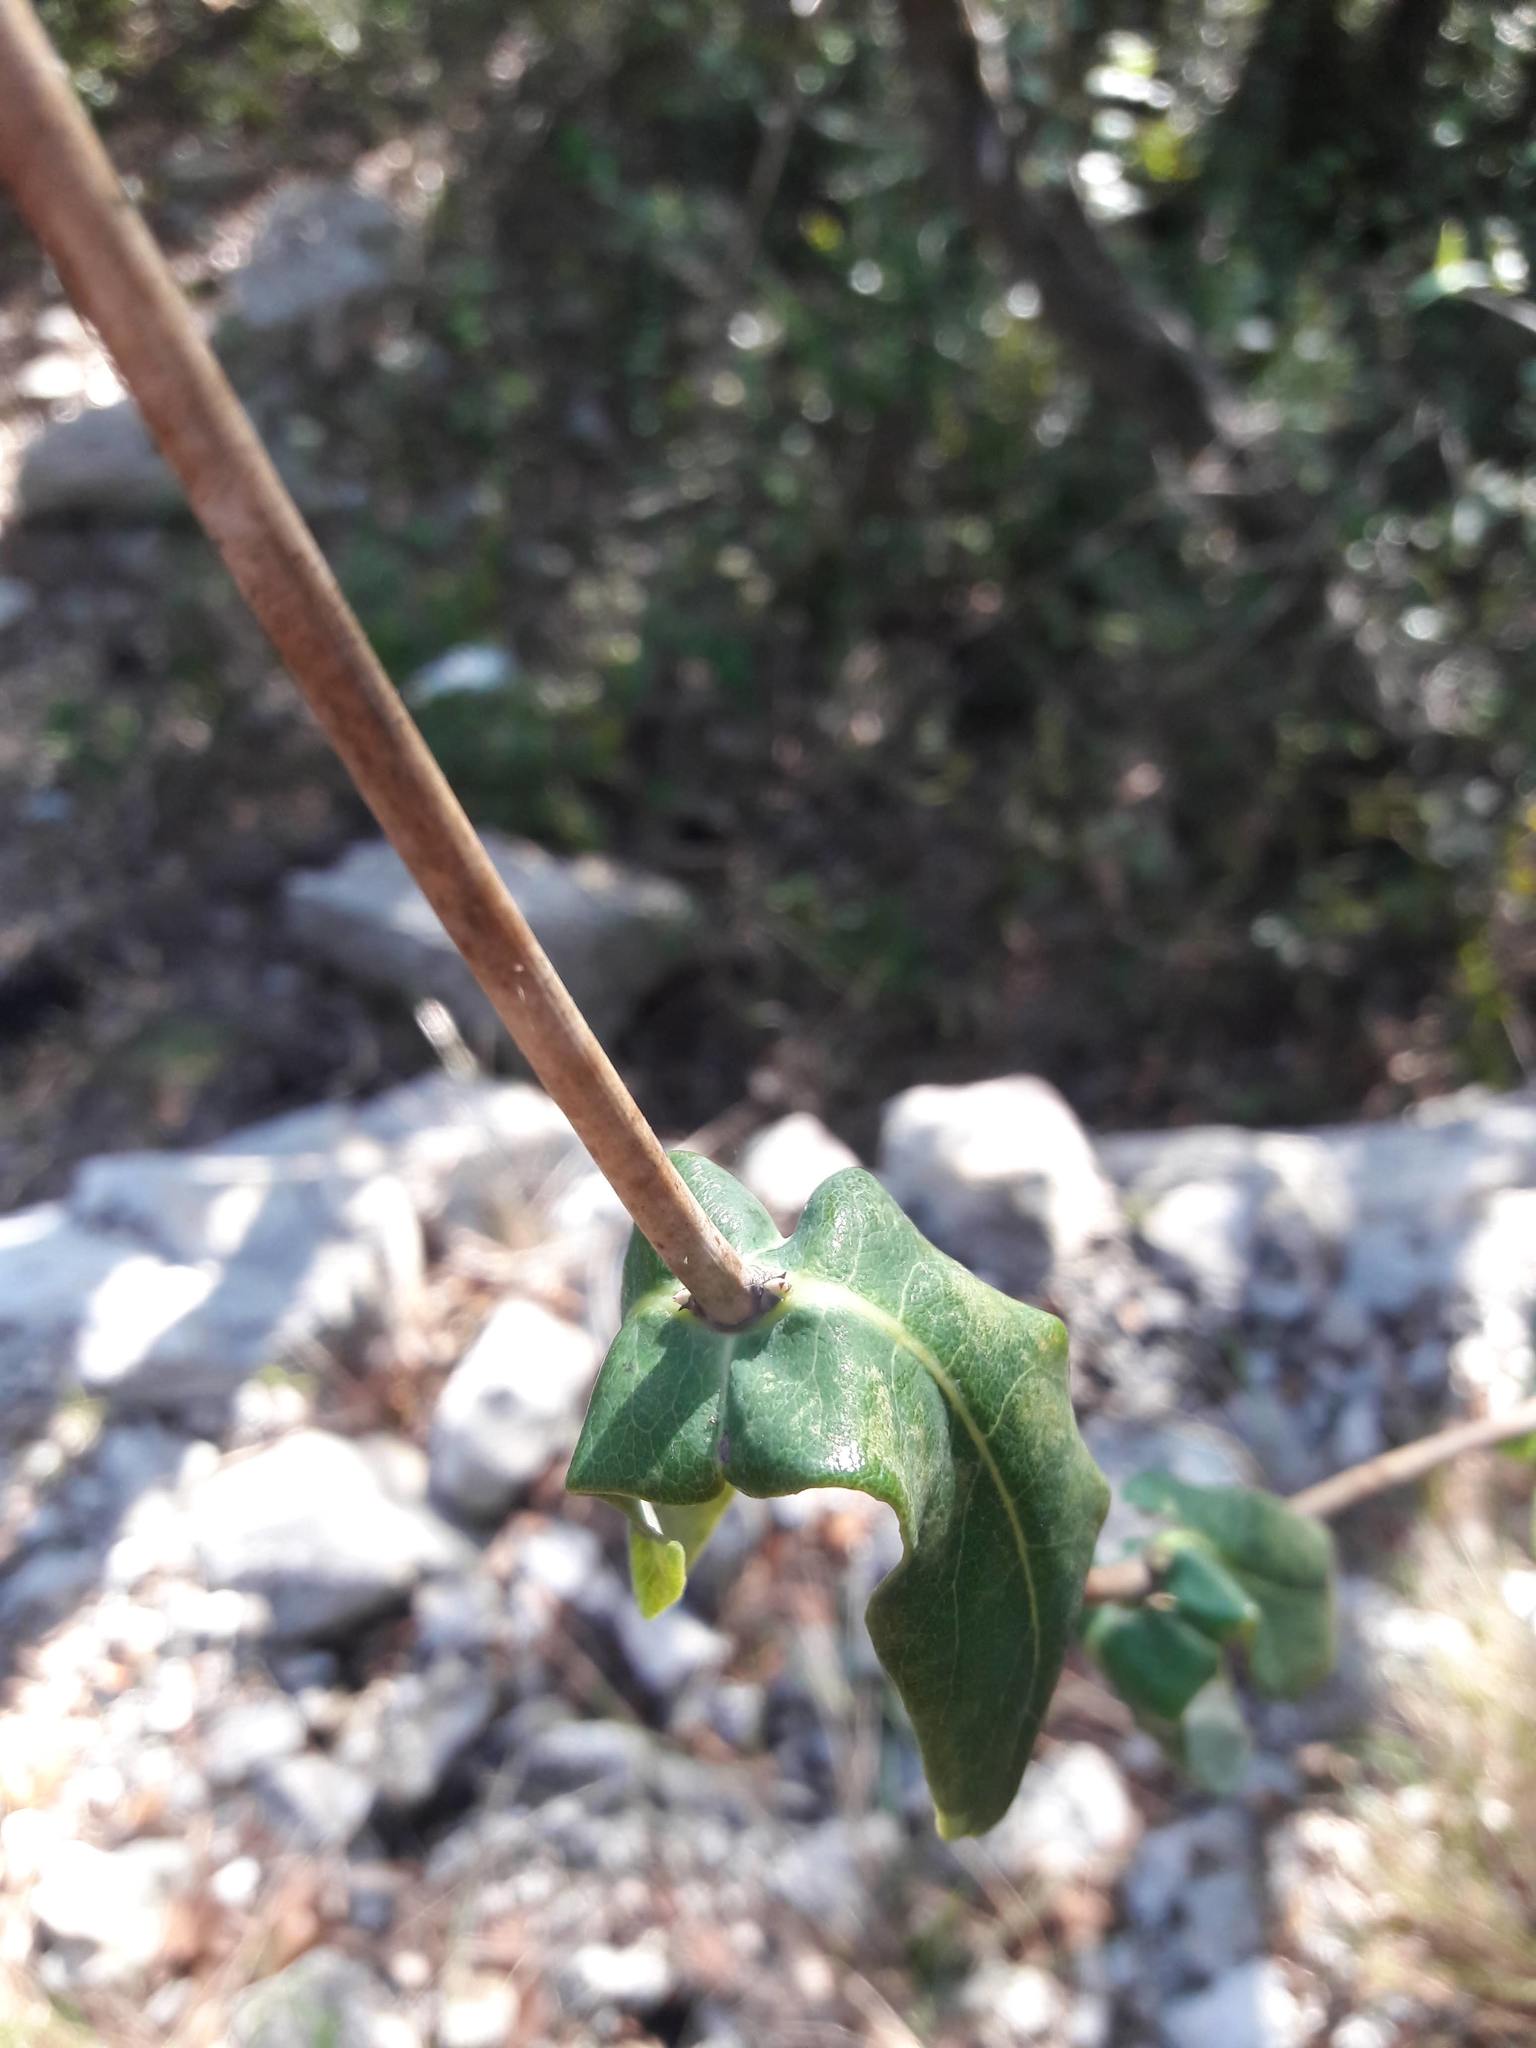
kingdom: Plantae
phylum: Tracheophyta
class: Magnoliopsida
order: Dipsacales
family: Caprifoliaceae
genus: Lonicera
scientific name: Lonicera implexa
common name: Minorca honeysuckle
